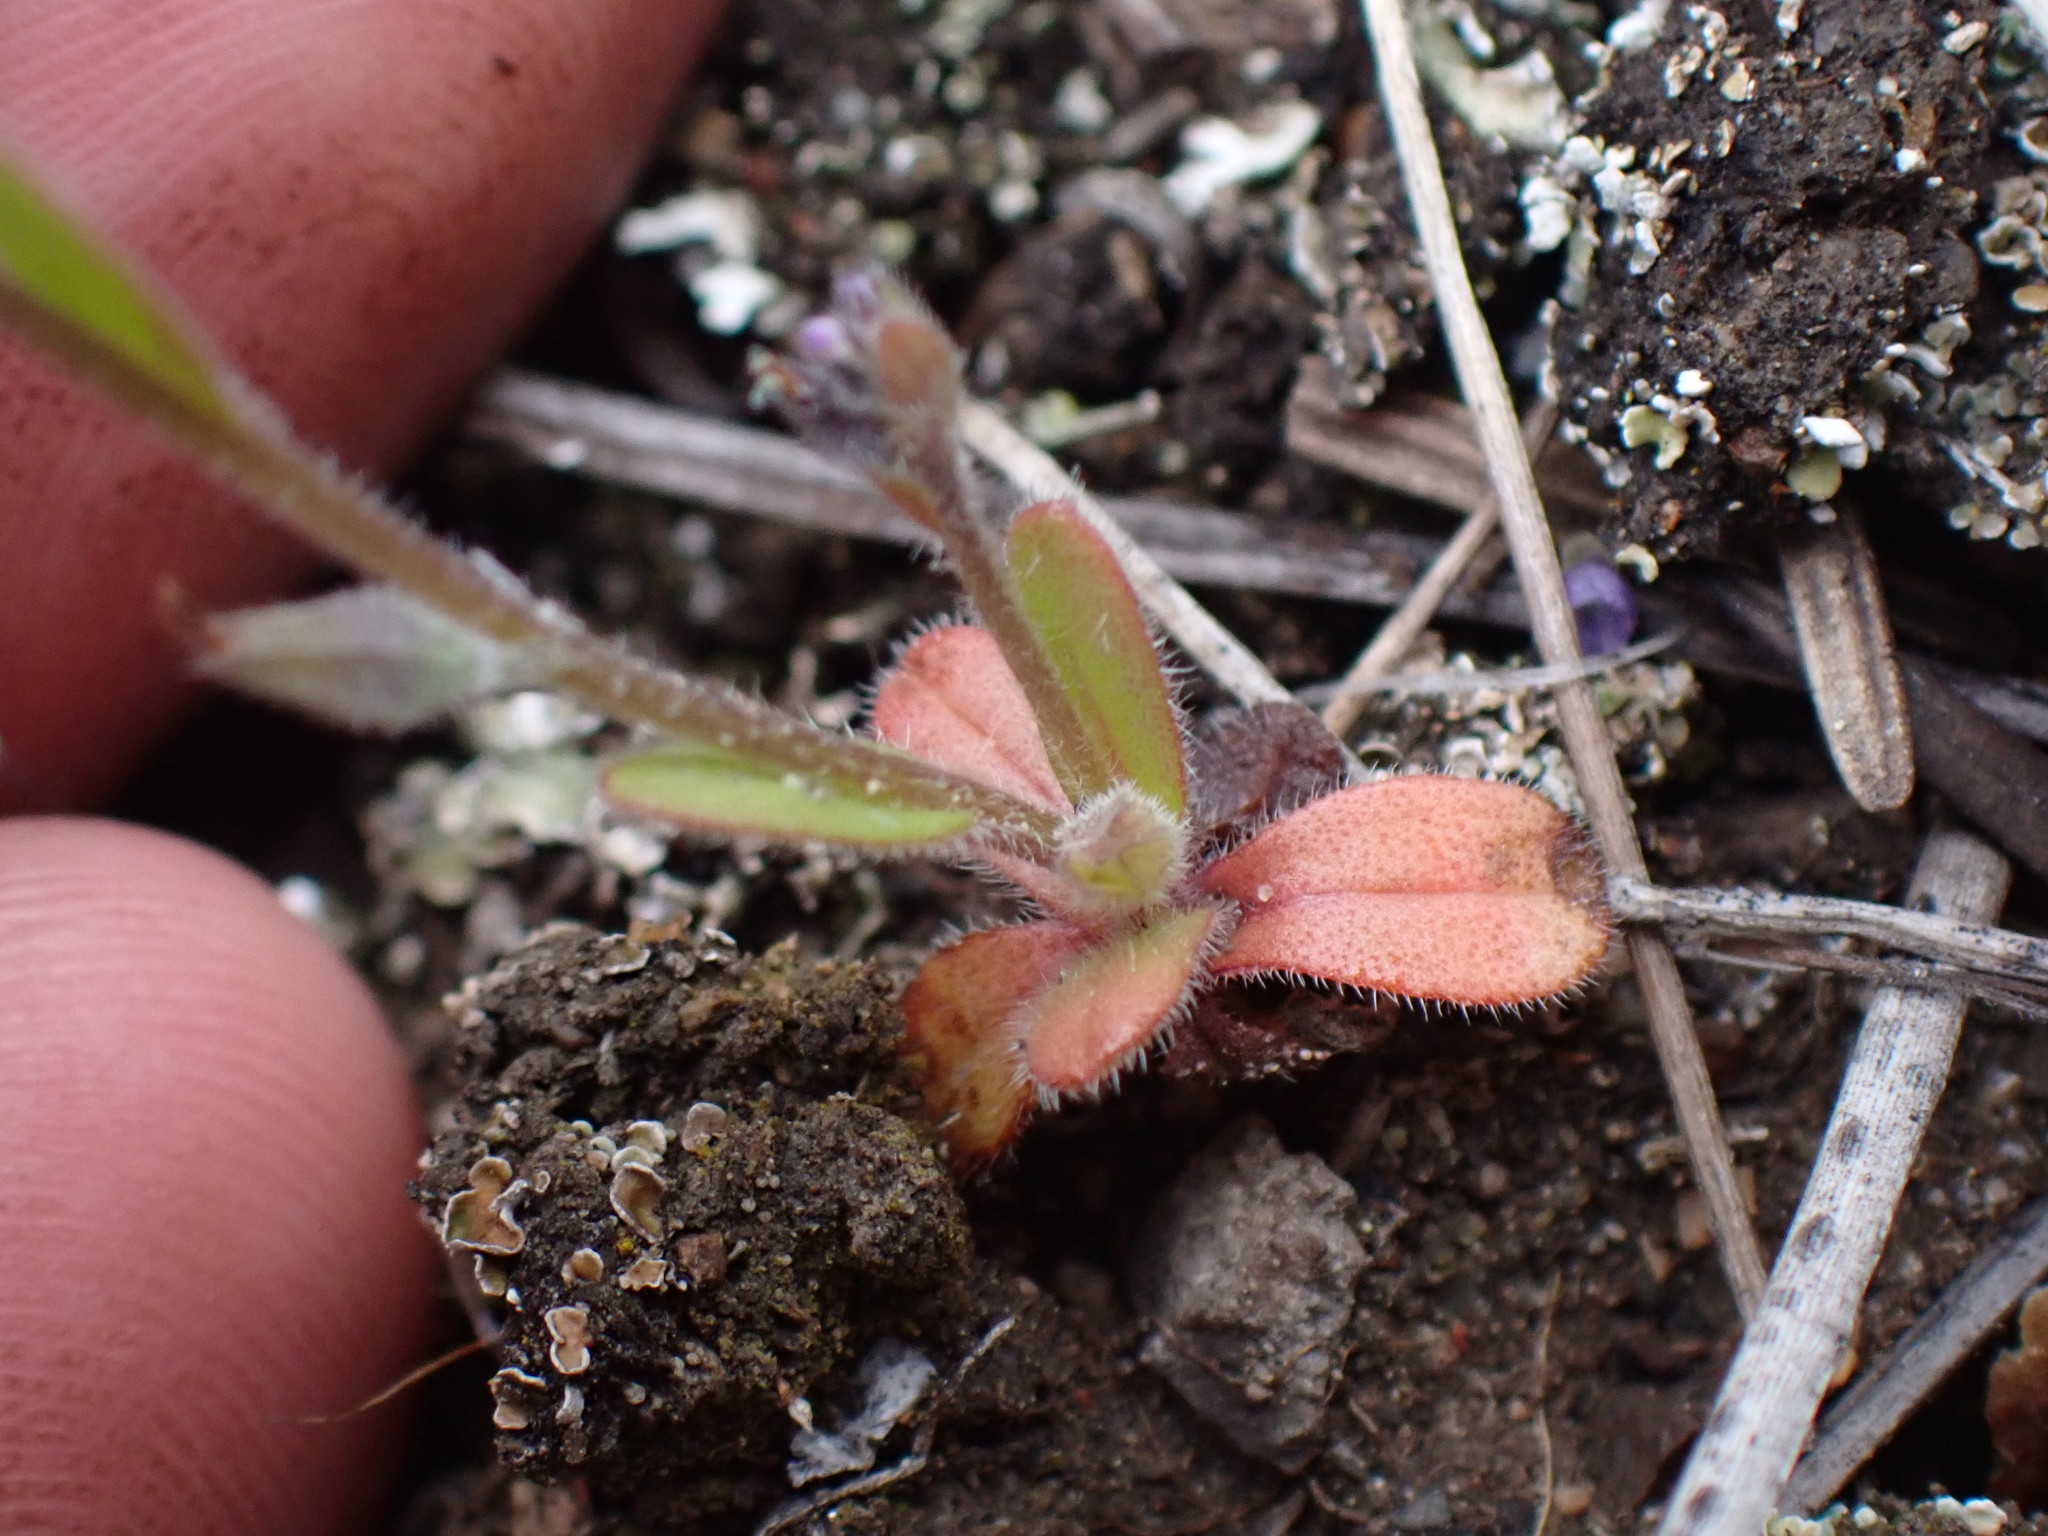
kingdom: Plantae
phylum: Tracheophyta
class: Magnoliopsida
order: Boraginales
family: Boraginaceae
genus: Myosotis
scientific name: Myosotis stricta
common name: Strict forget-me-not
